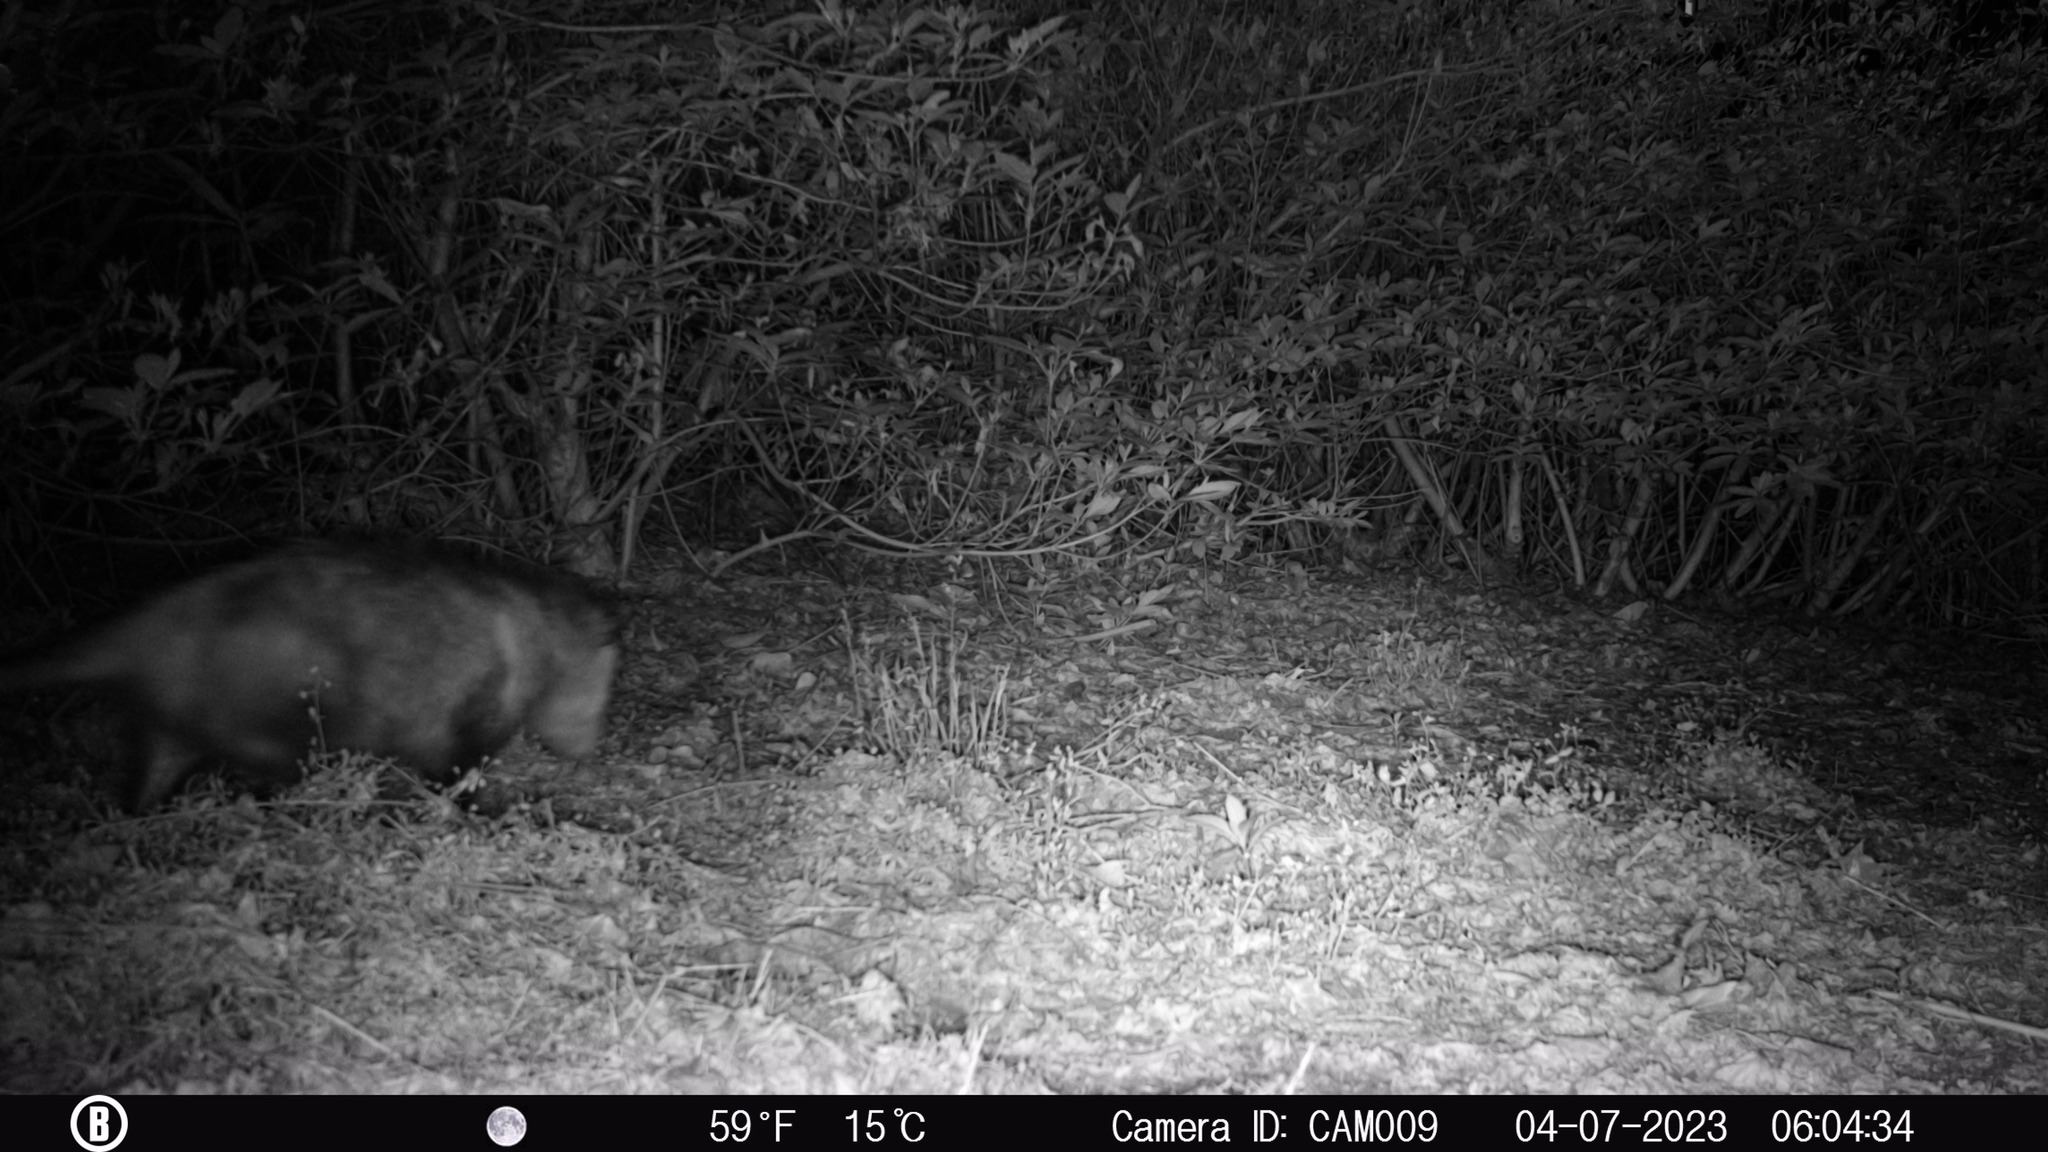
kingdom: Animalia
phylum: Chordata
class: Mammalia
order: Didelphimorphia
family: Didelphidae
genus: Didelphis
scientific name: Didelphis virginiana
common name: Virginia opossum
